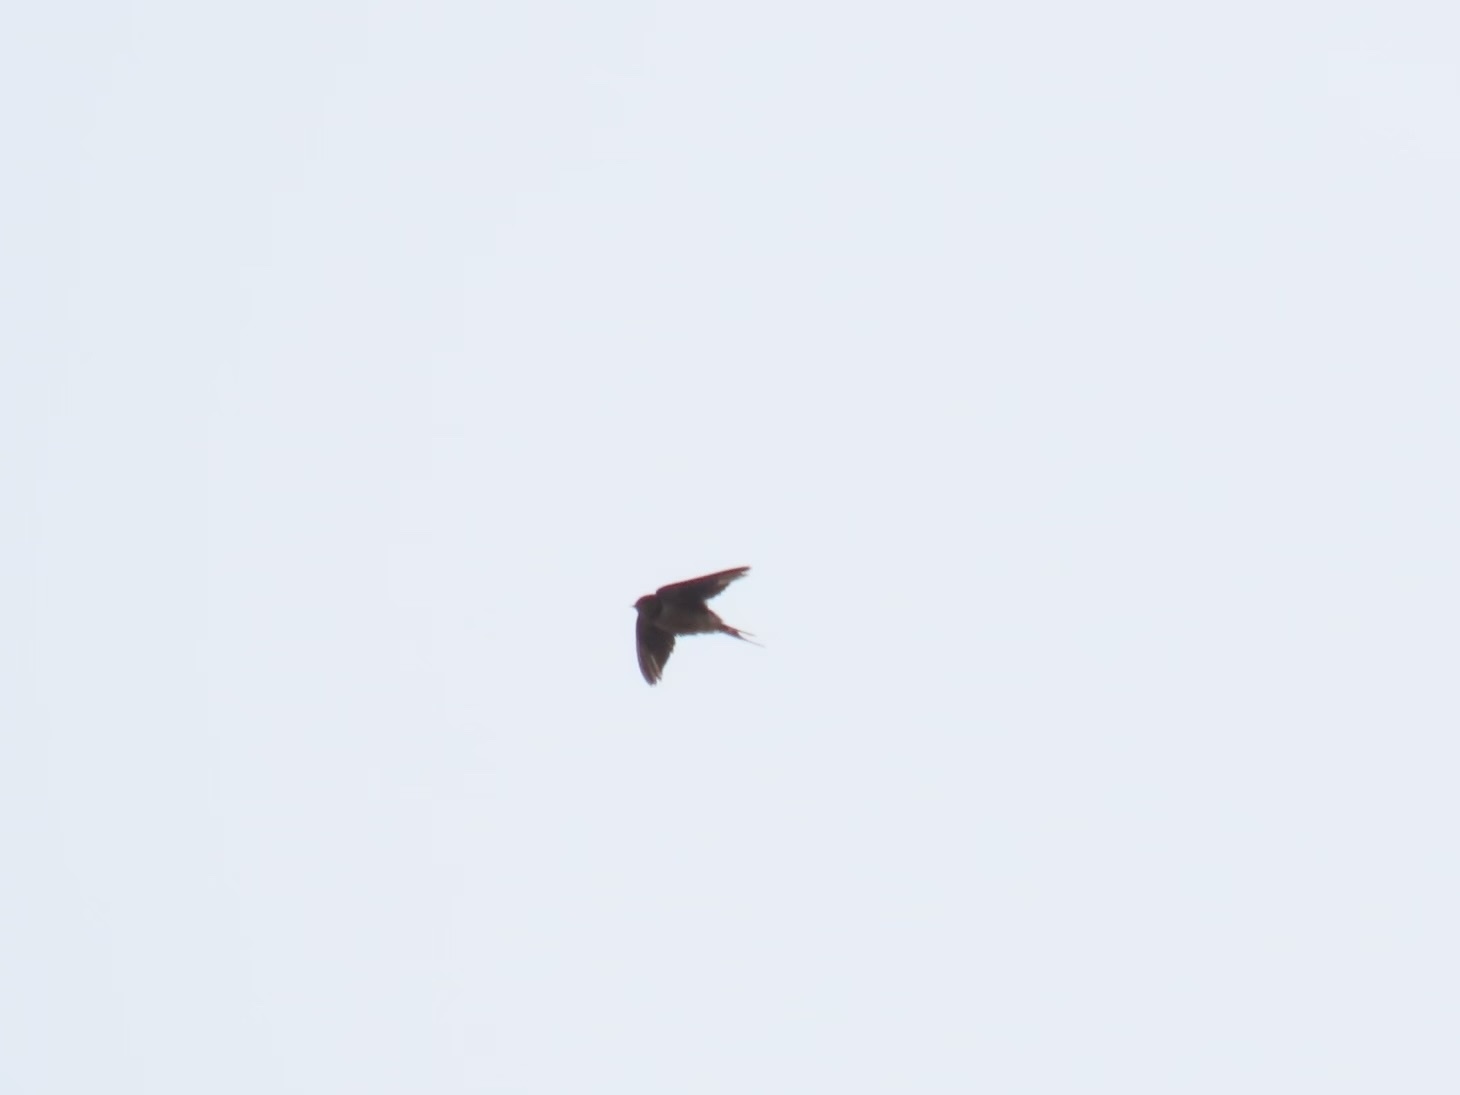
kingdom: Animalia
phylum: Chordata
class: Aves
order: Passeriformes
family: Hirundinidae
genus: Hirundo
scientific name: Hirundo rustica
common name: Barn swallow
